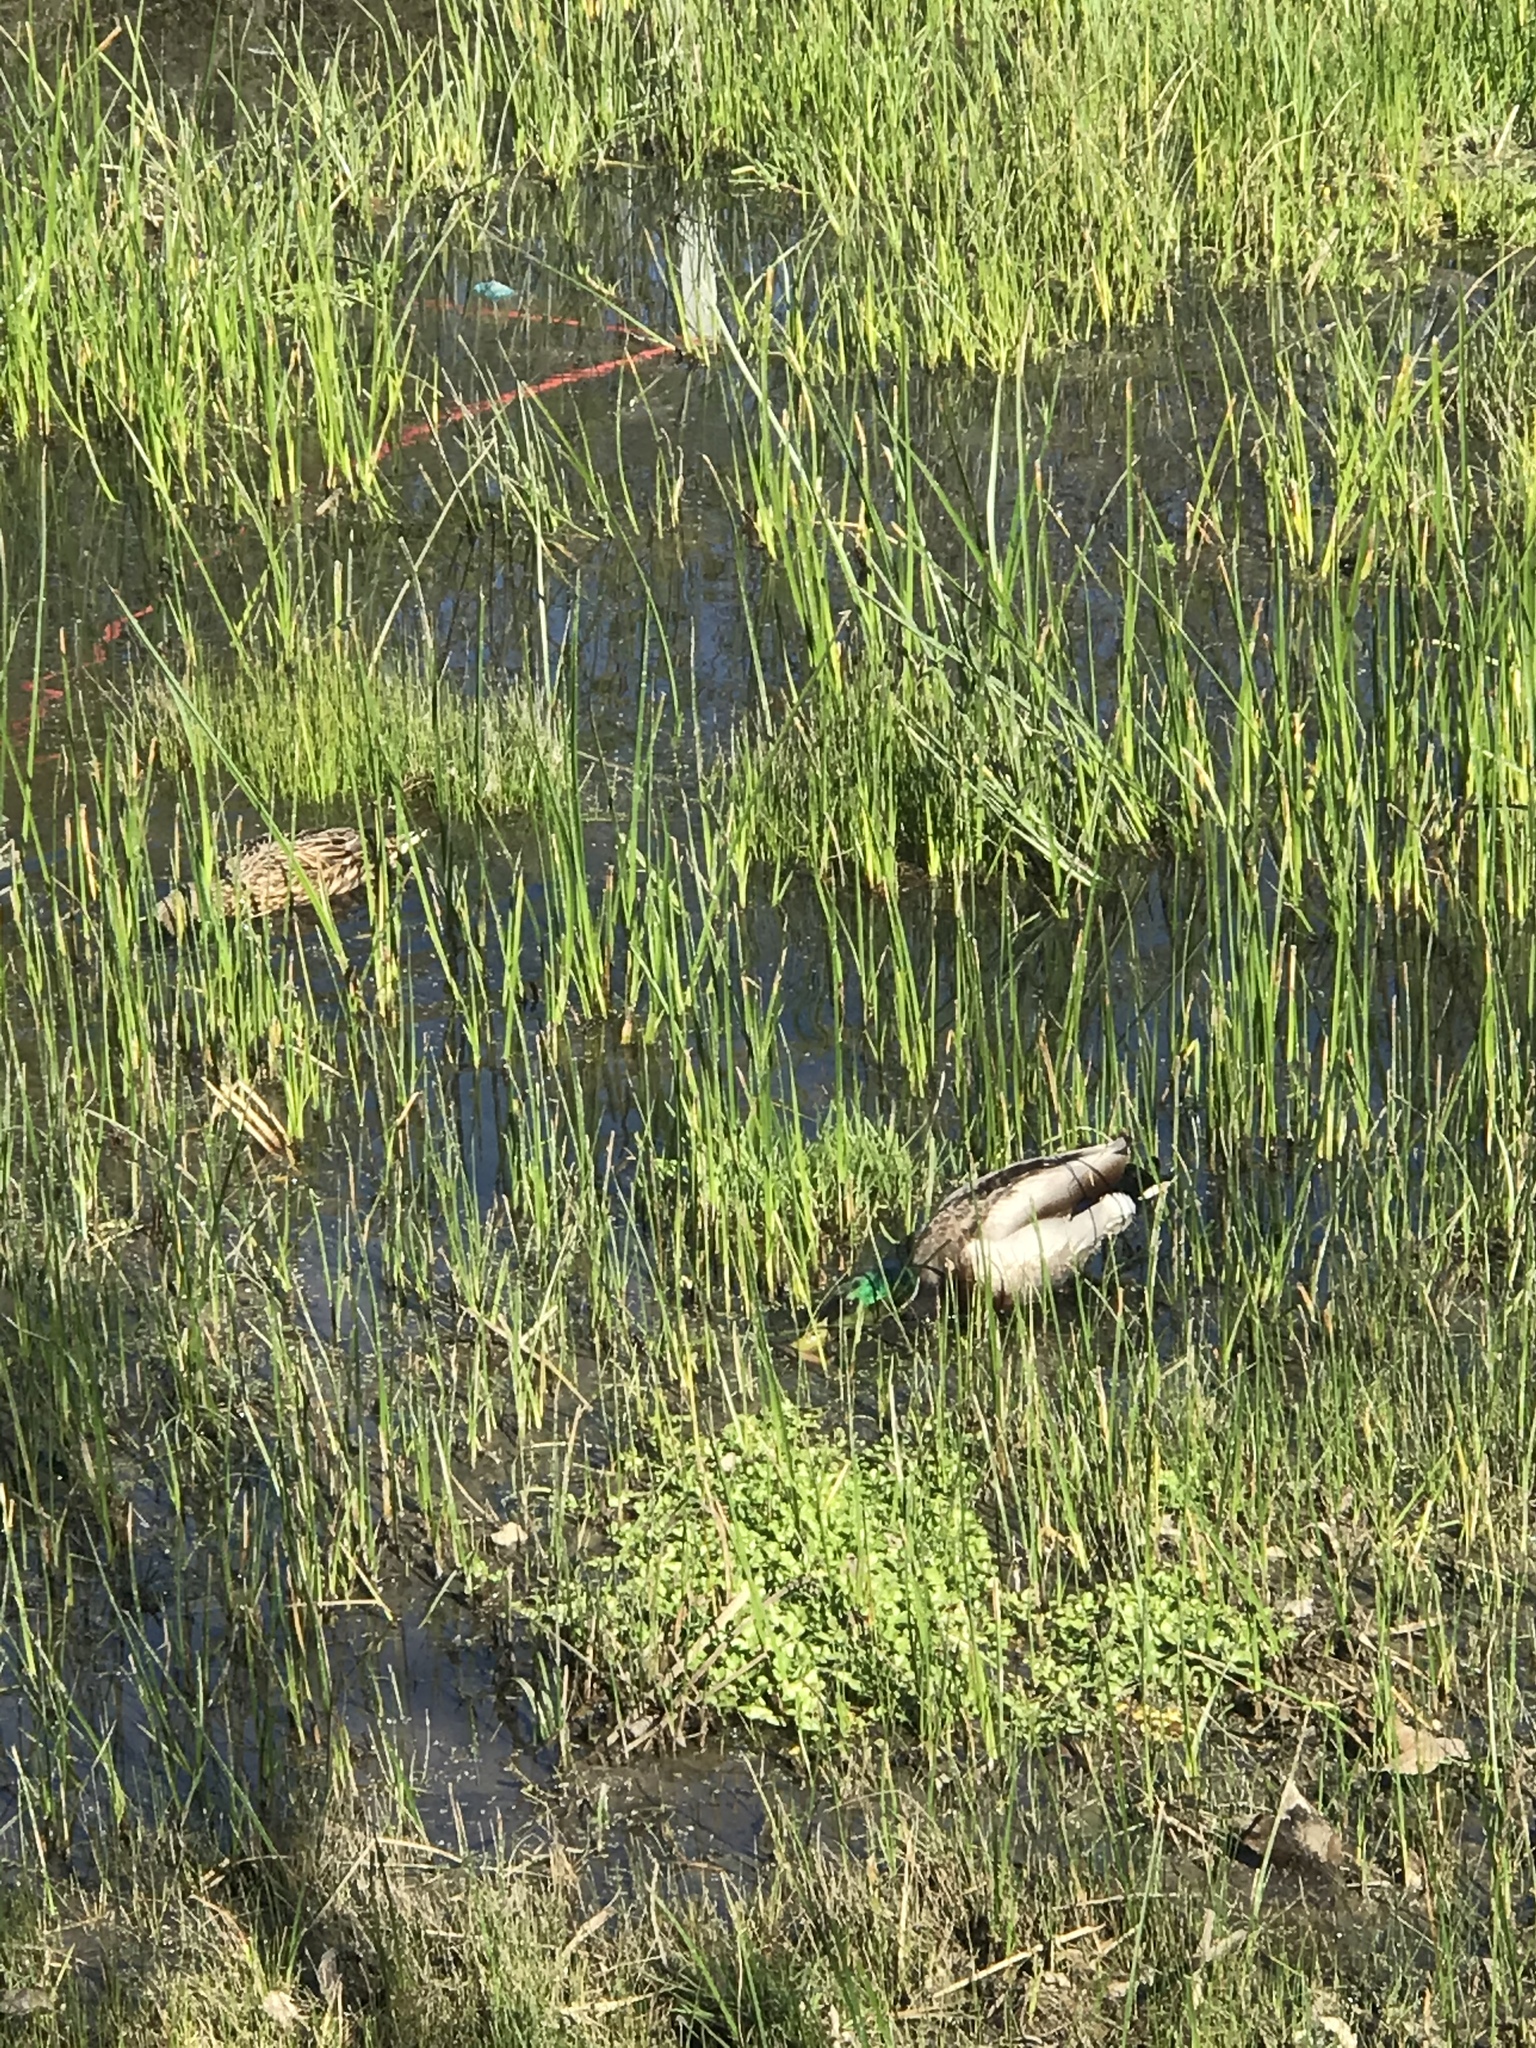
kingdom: Animalia
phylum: Chordata
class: Aves
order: Anseriformes
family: Anatidae
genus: Anas
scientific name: Anas platyrhynchos
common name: Mallard
